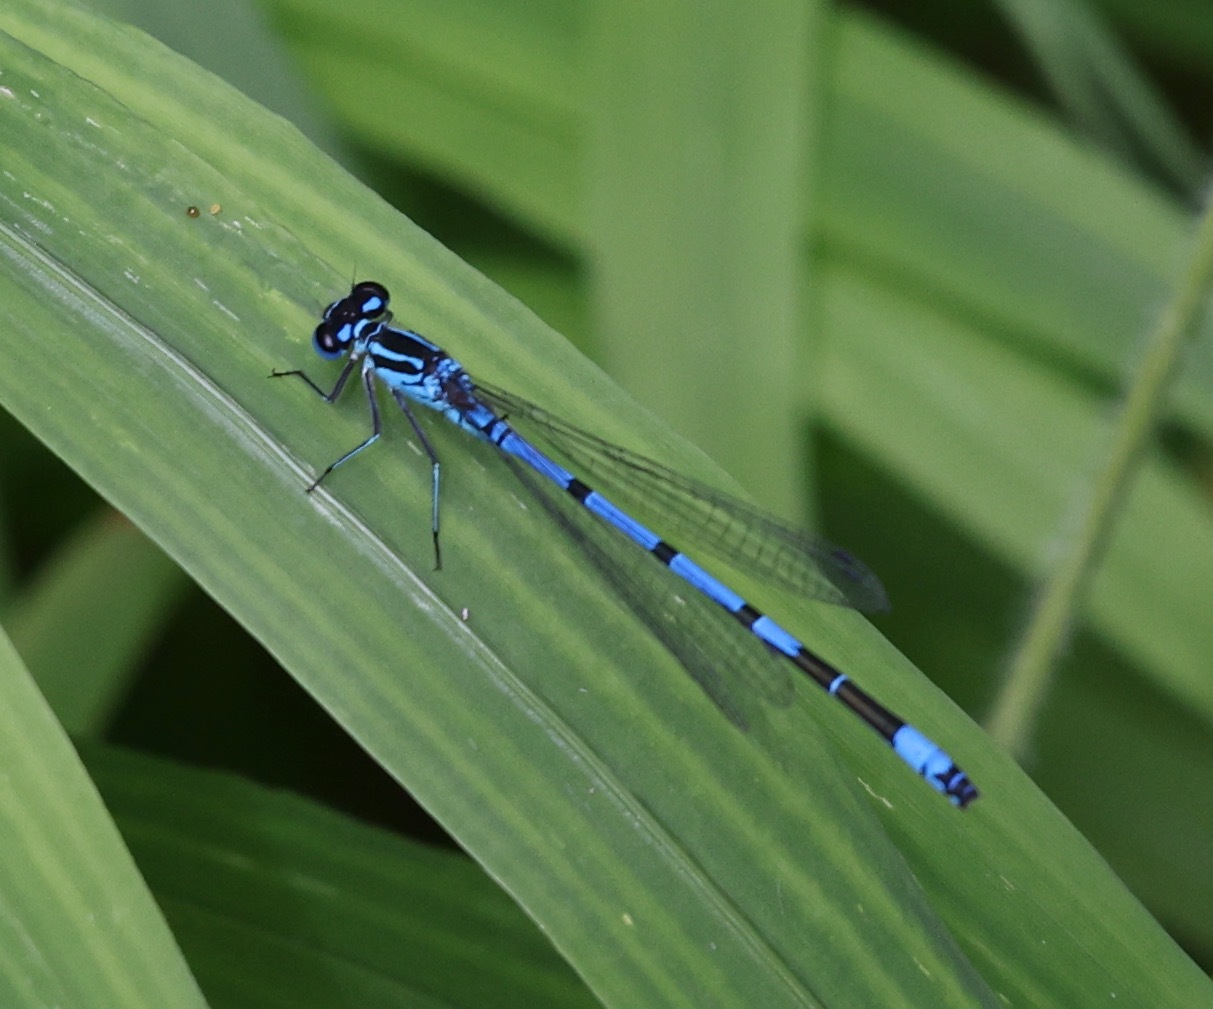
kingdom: Animalia
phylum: Arthropoda
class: Insecta
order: Odonata
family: Coenagrionidae
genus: Coenagrion
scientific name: Coenagrion puella
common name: Azure damselfly
